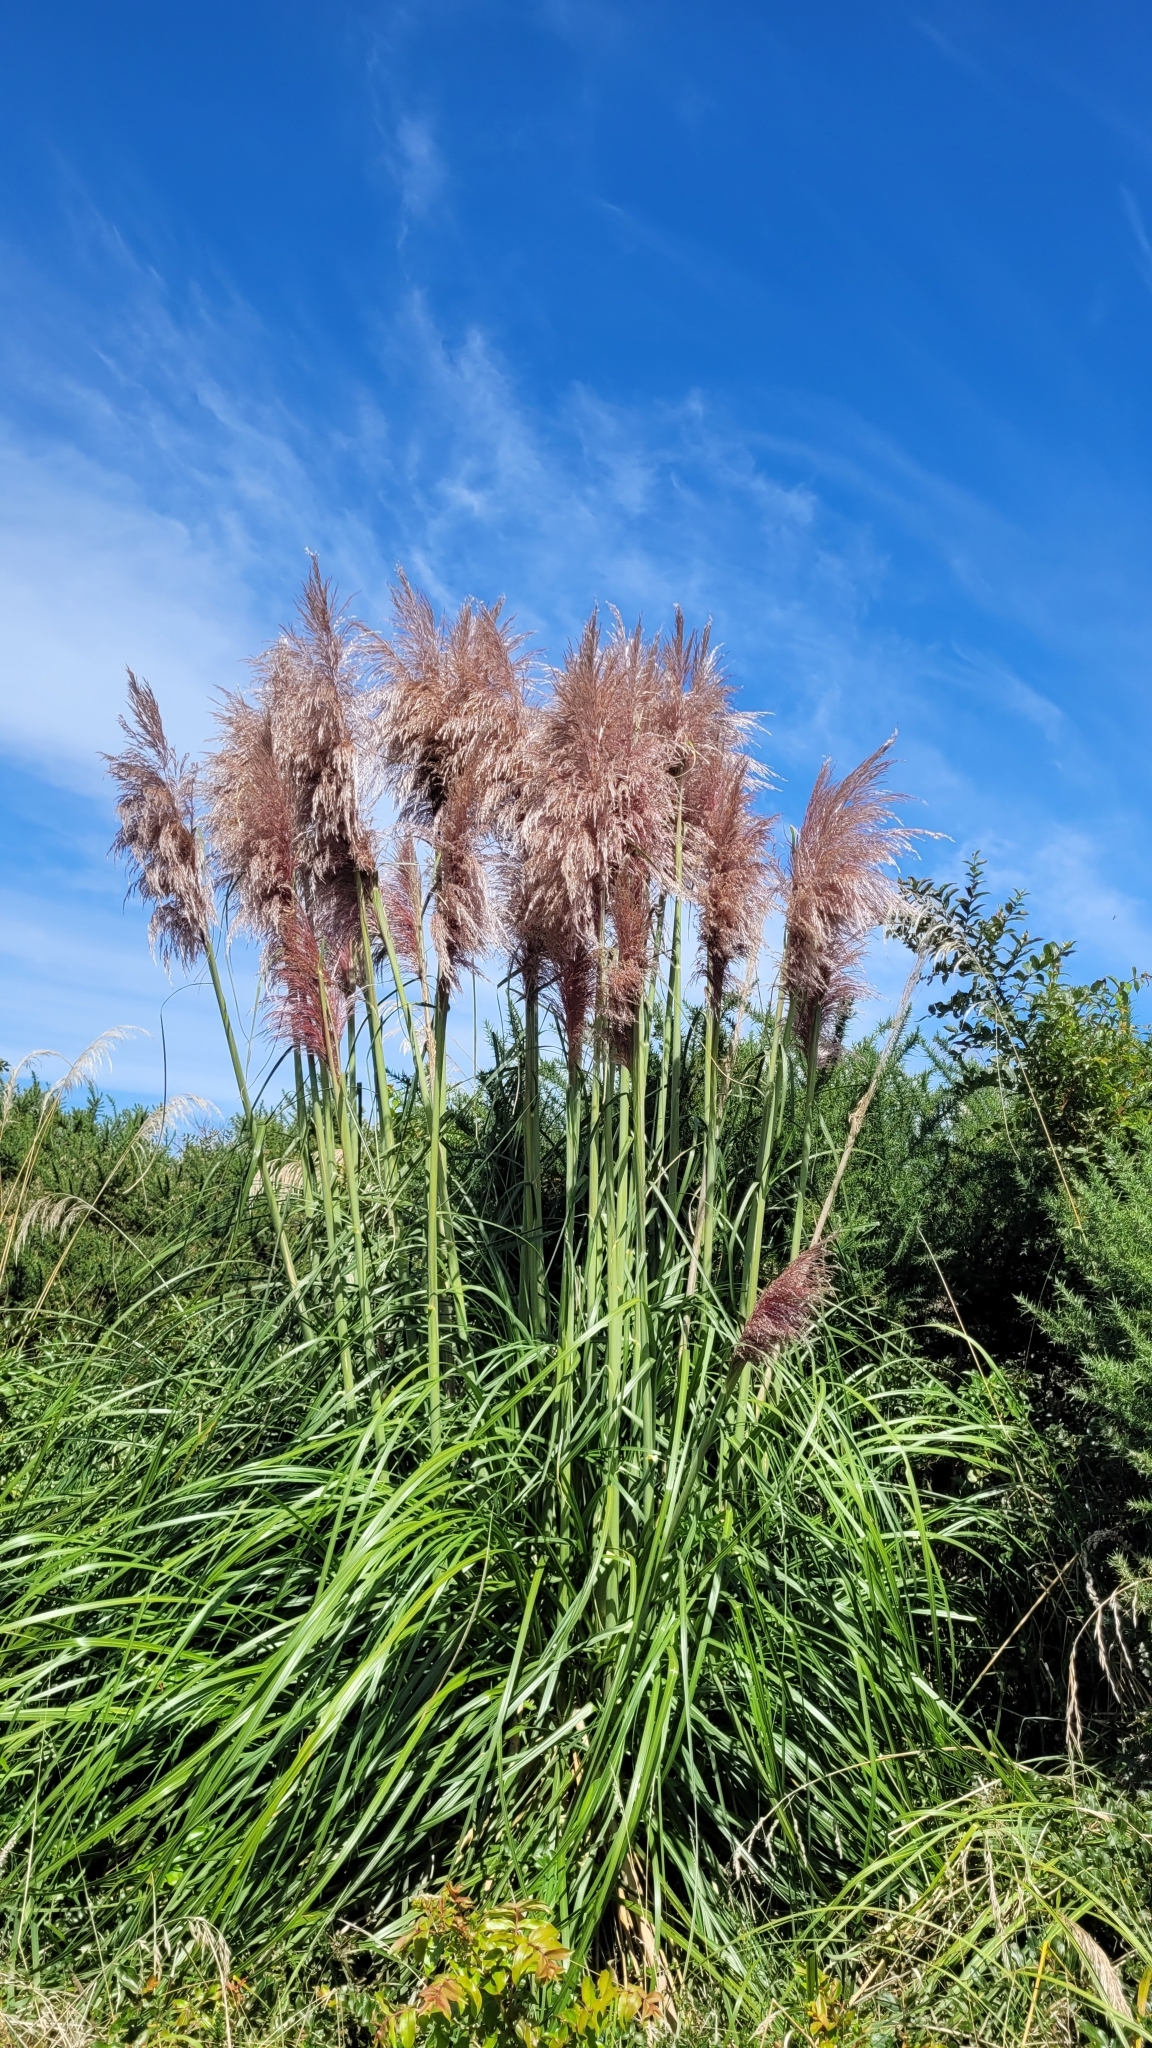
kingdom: Plantae
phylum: Tracheophyta
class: Liliopsida
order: Poales
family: Poaceae
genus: Cortaderia
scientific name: Cortaderia jubata
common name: Purple pampas grass
